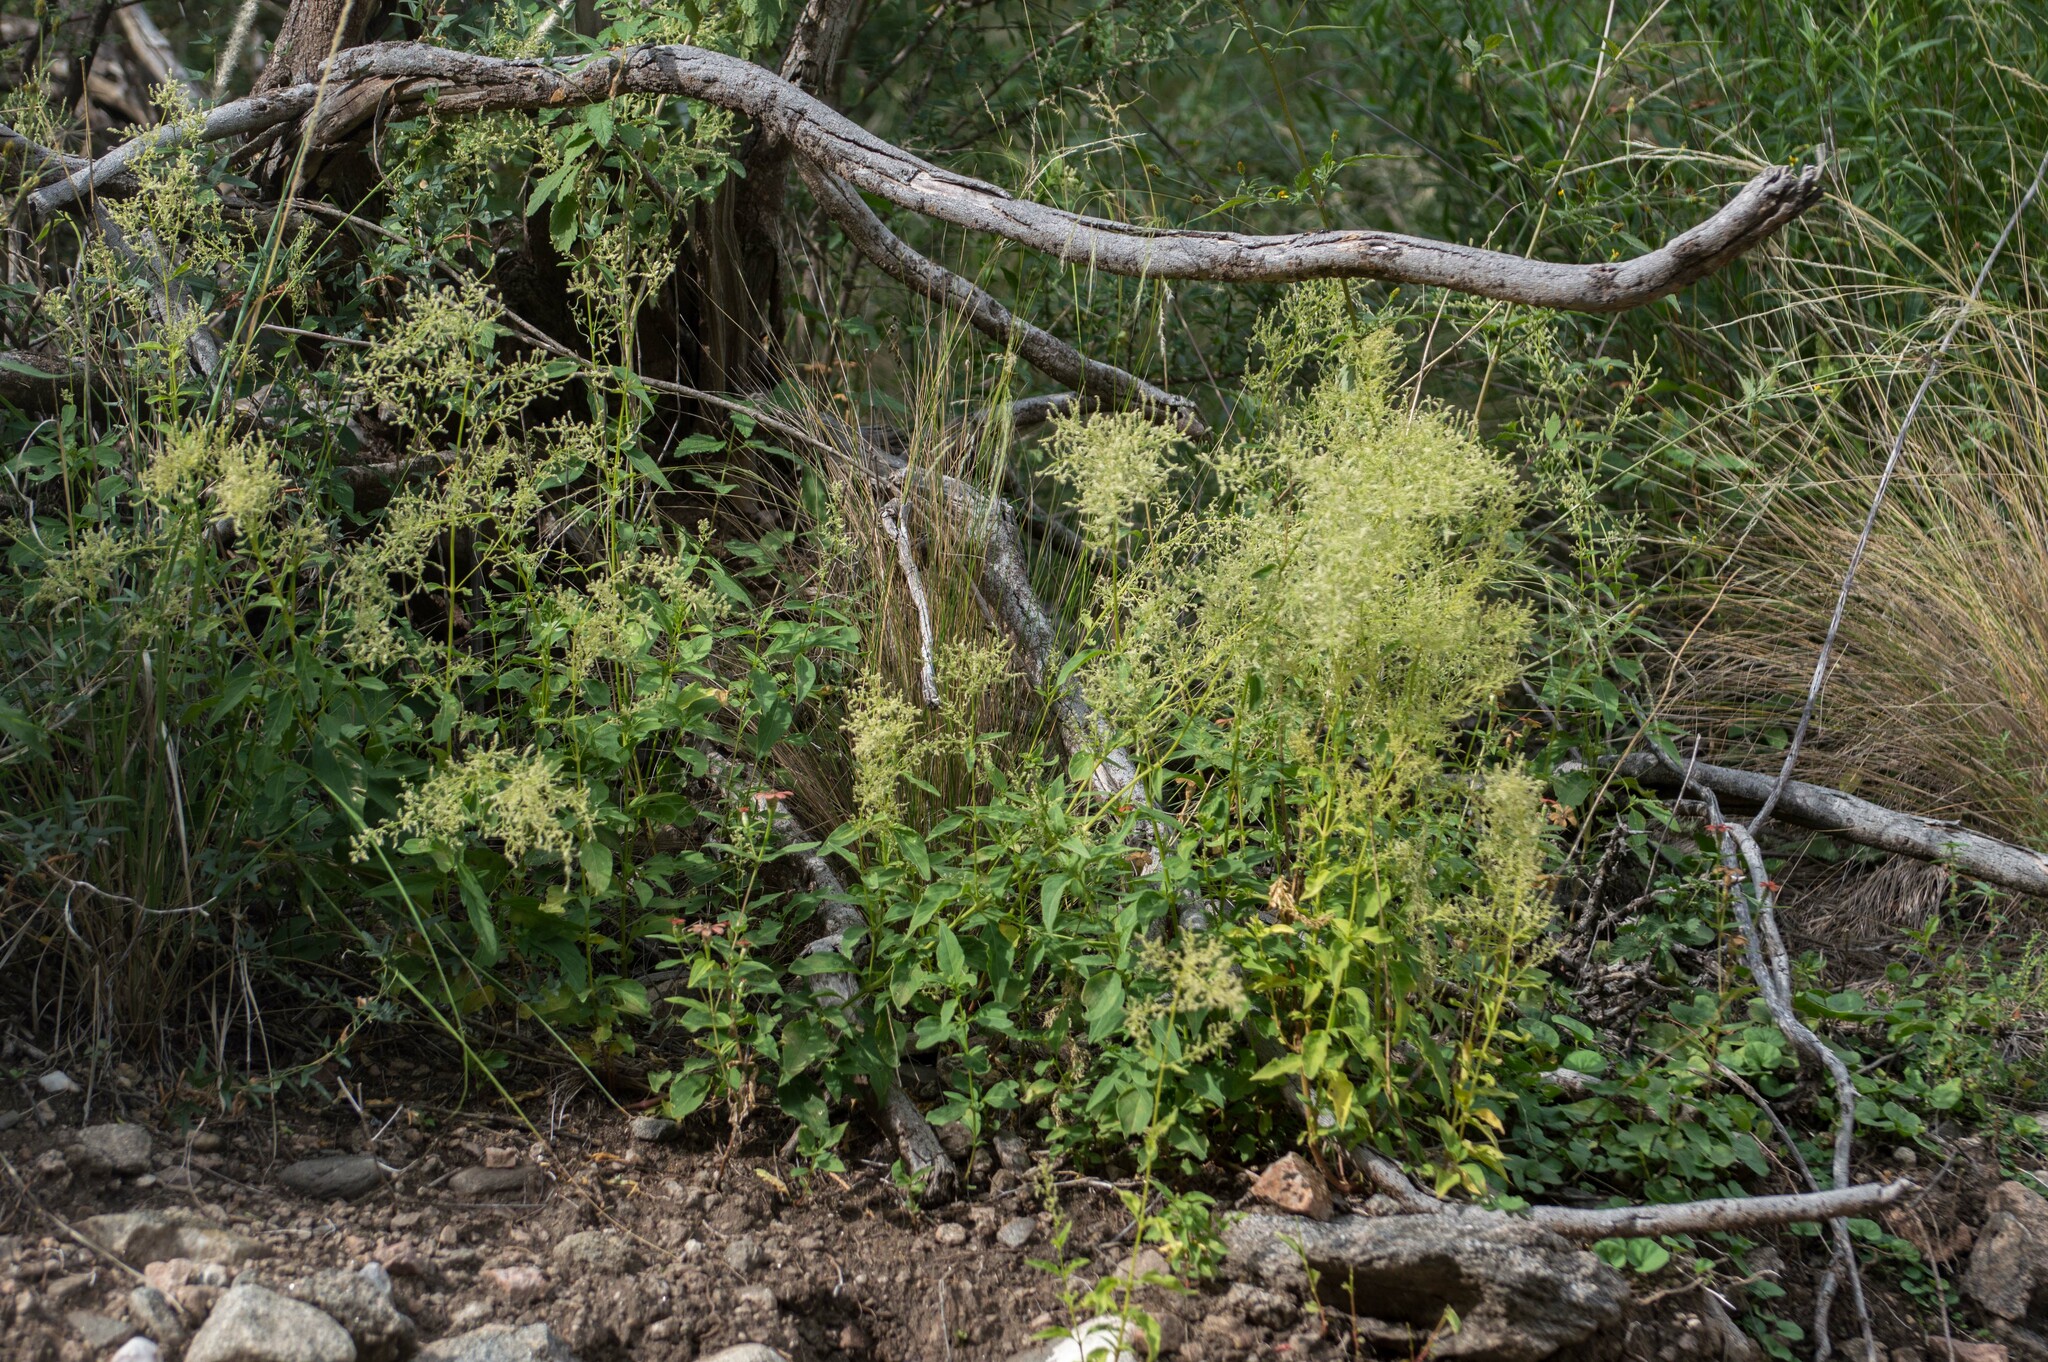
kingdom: Plantae
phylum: Tracheophyta
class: Magnoliopsida
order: Caryophyllales
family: Amaranthaceae
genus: Iresine
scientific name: Iresine diffusa
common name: Juba's-bush
